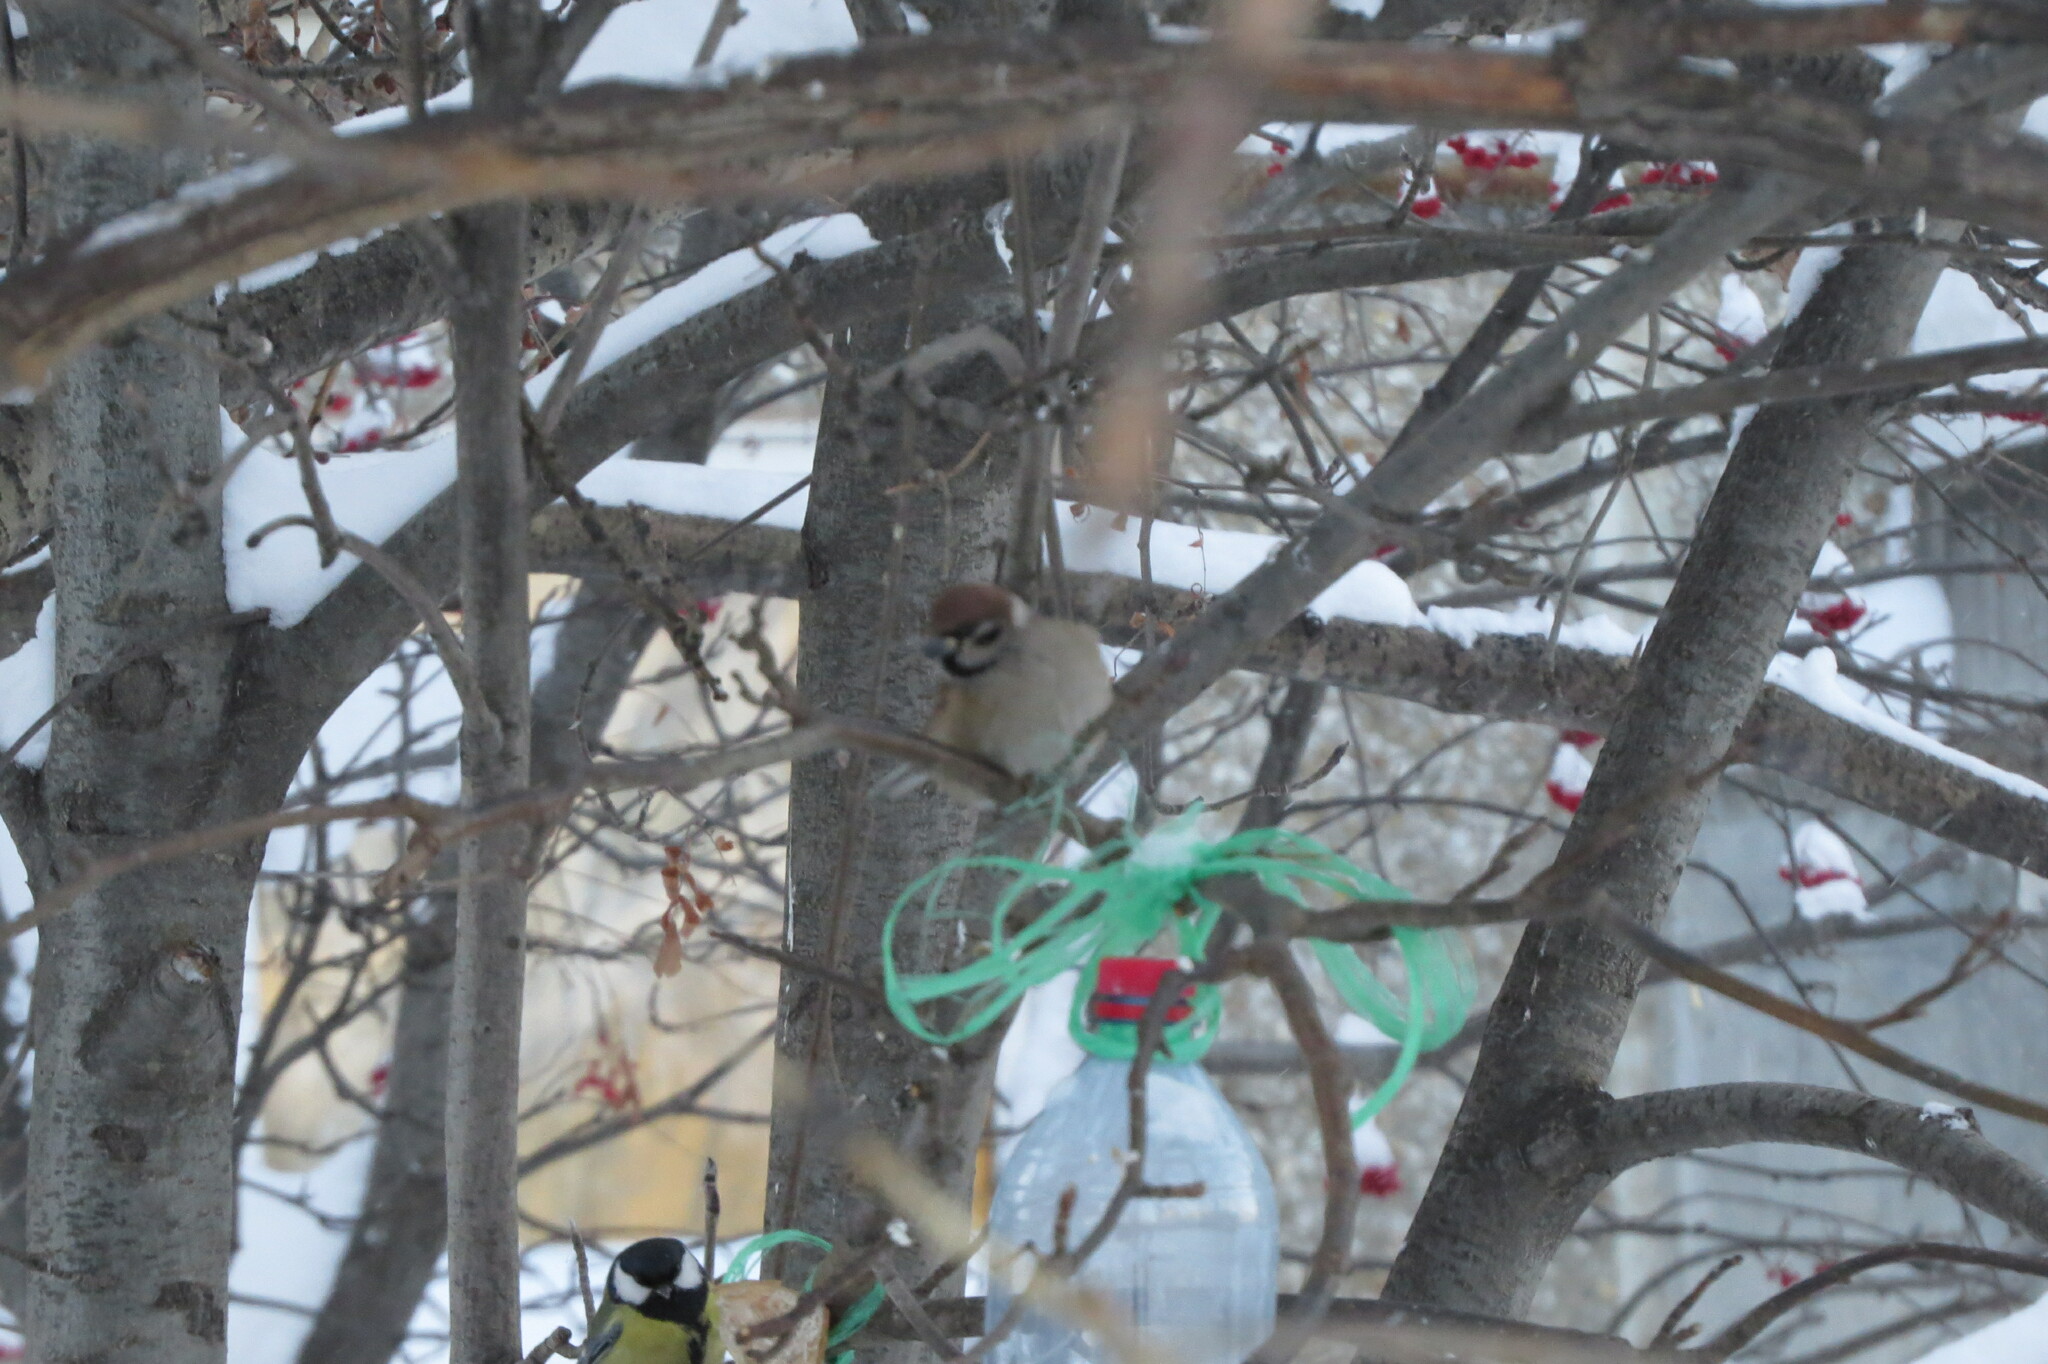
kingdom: Animalia
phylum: Chordata
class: Aves
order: Passeriformes
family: Passeridae
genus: Passer
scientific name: Passer montanus
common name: Eurasian tree sparrow
